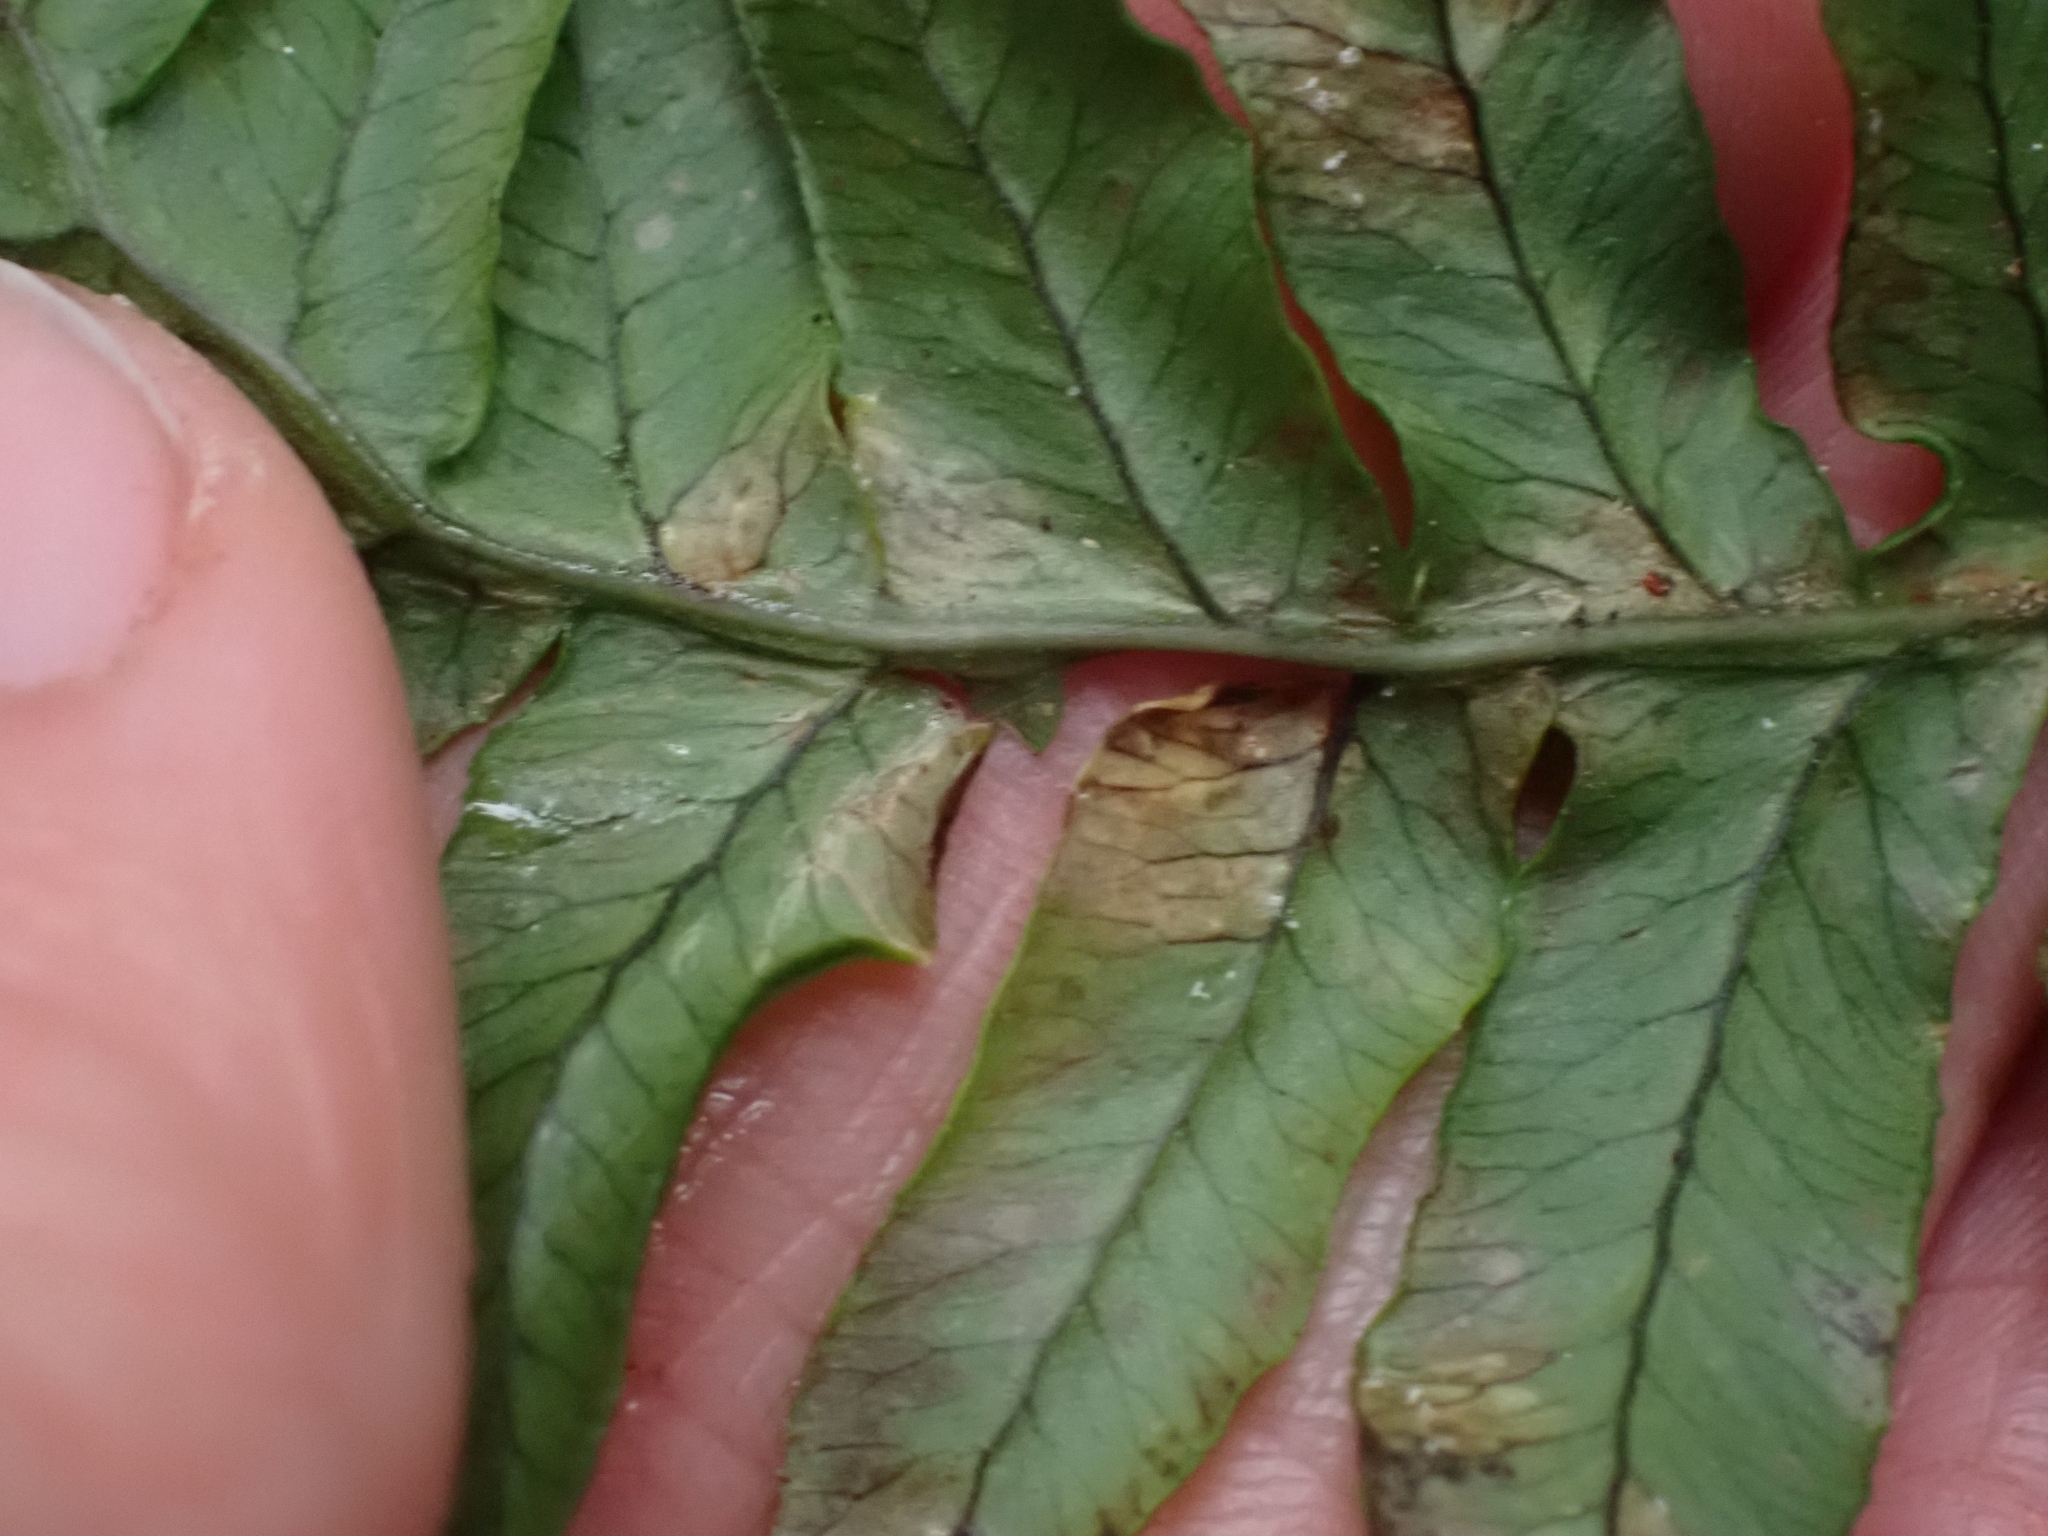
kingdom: Plantae
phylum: Tracheophyta
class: Polypodiopsida
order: Polypodiales
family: Polypodiaceae
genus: Polypodium
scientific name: Polypodium glycyrrhiza
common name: Licorice fern
